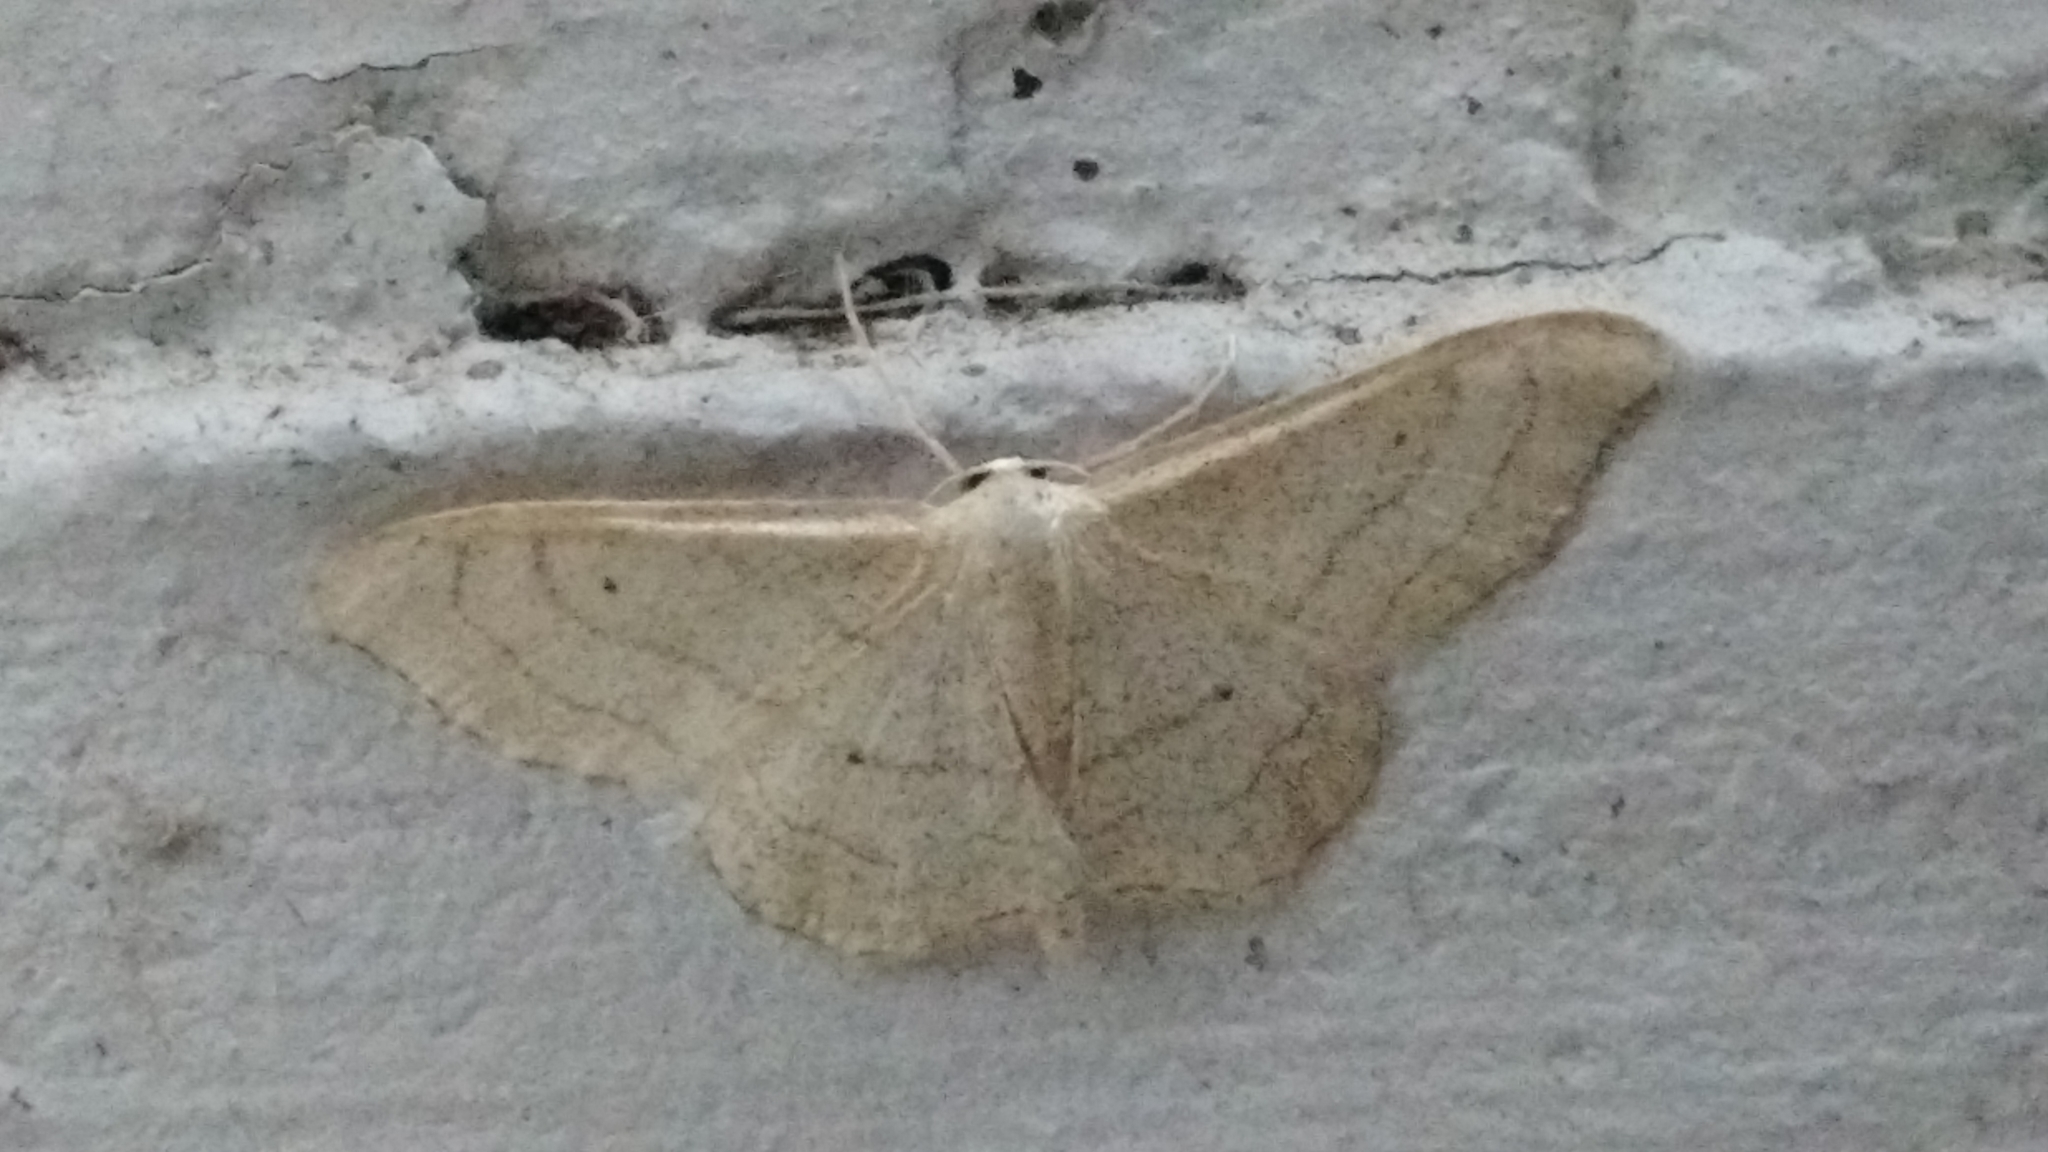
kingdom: Animalia
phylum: Arthropoda
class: Insecta
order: Lepidoptera
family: Geometridae
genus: Idaea
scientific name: Idaea aversata
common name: Riband wave
